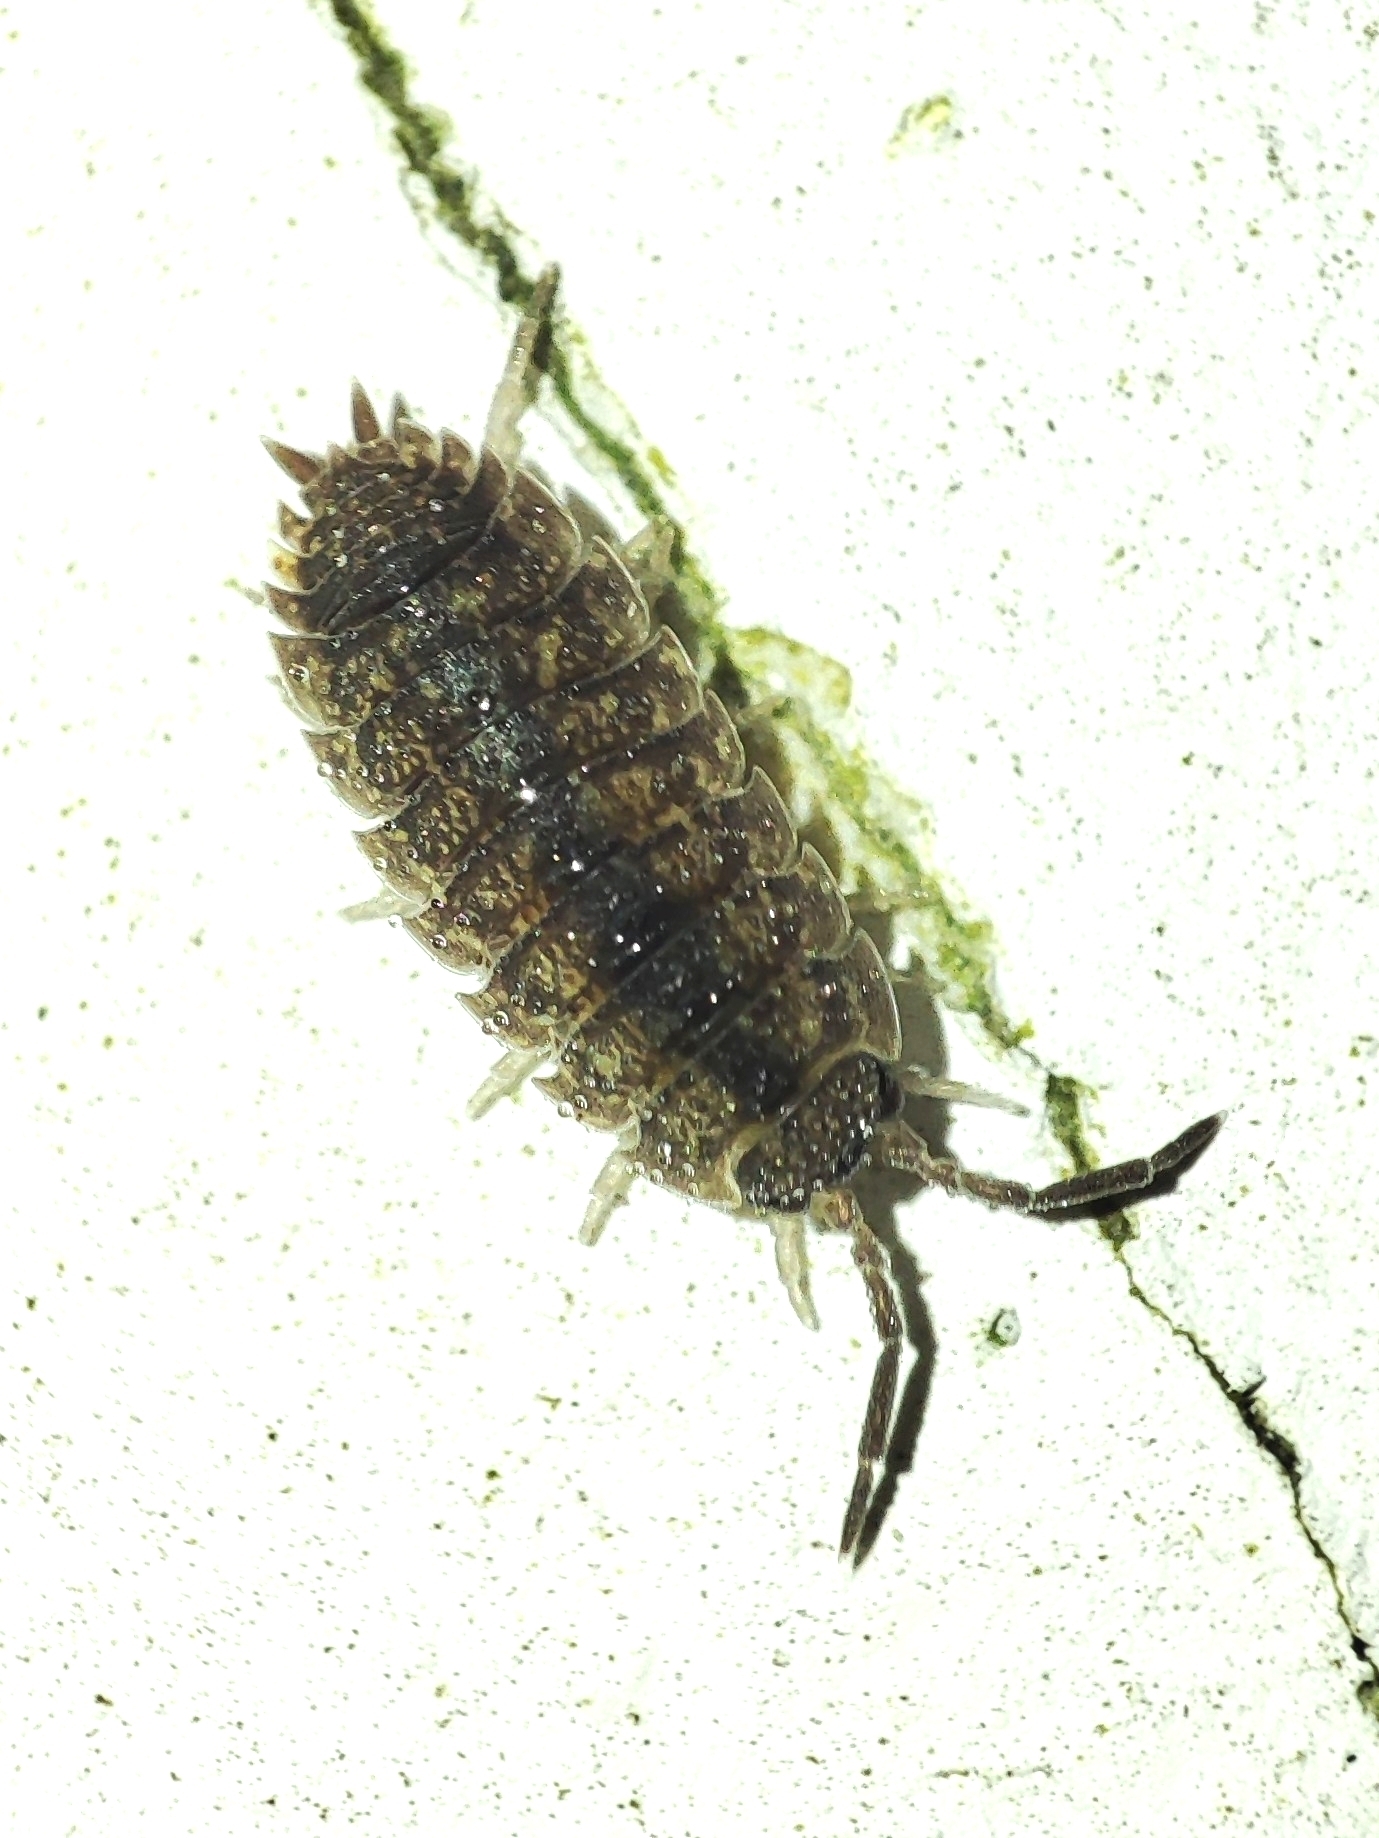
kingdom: Animalia
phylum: Arthropoda
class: Malacostraca
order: Isopoda
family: Porcellionidae
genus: Porcellio
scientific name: Porcellio scaber
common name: Common rough woodlouse
